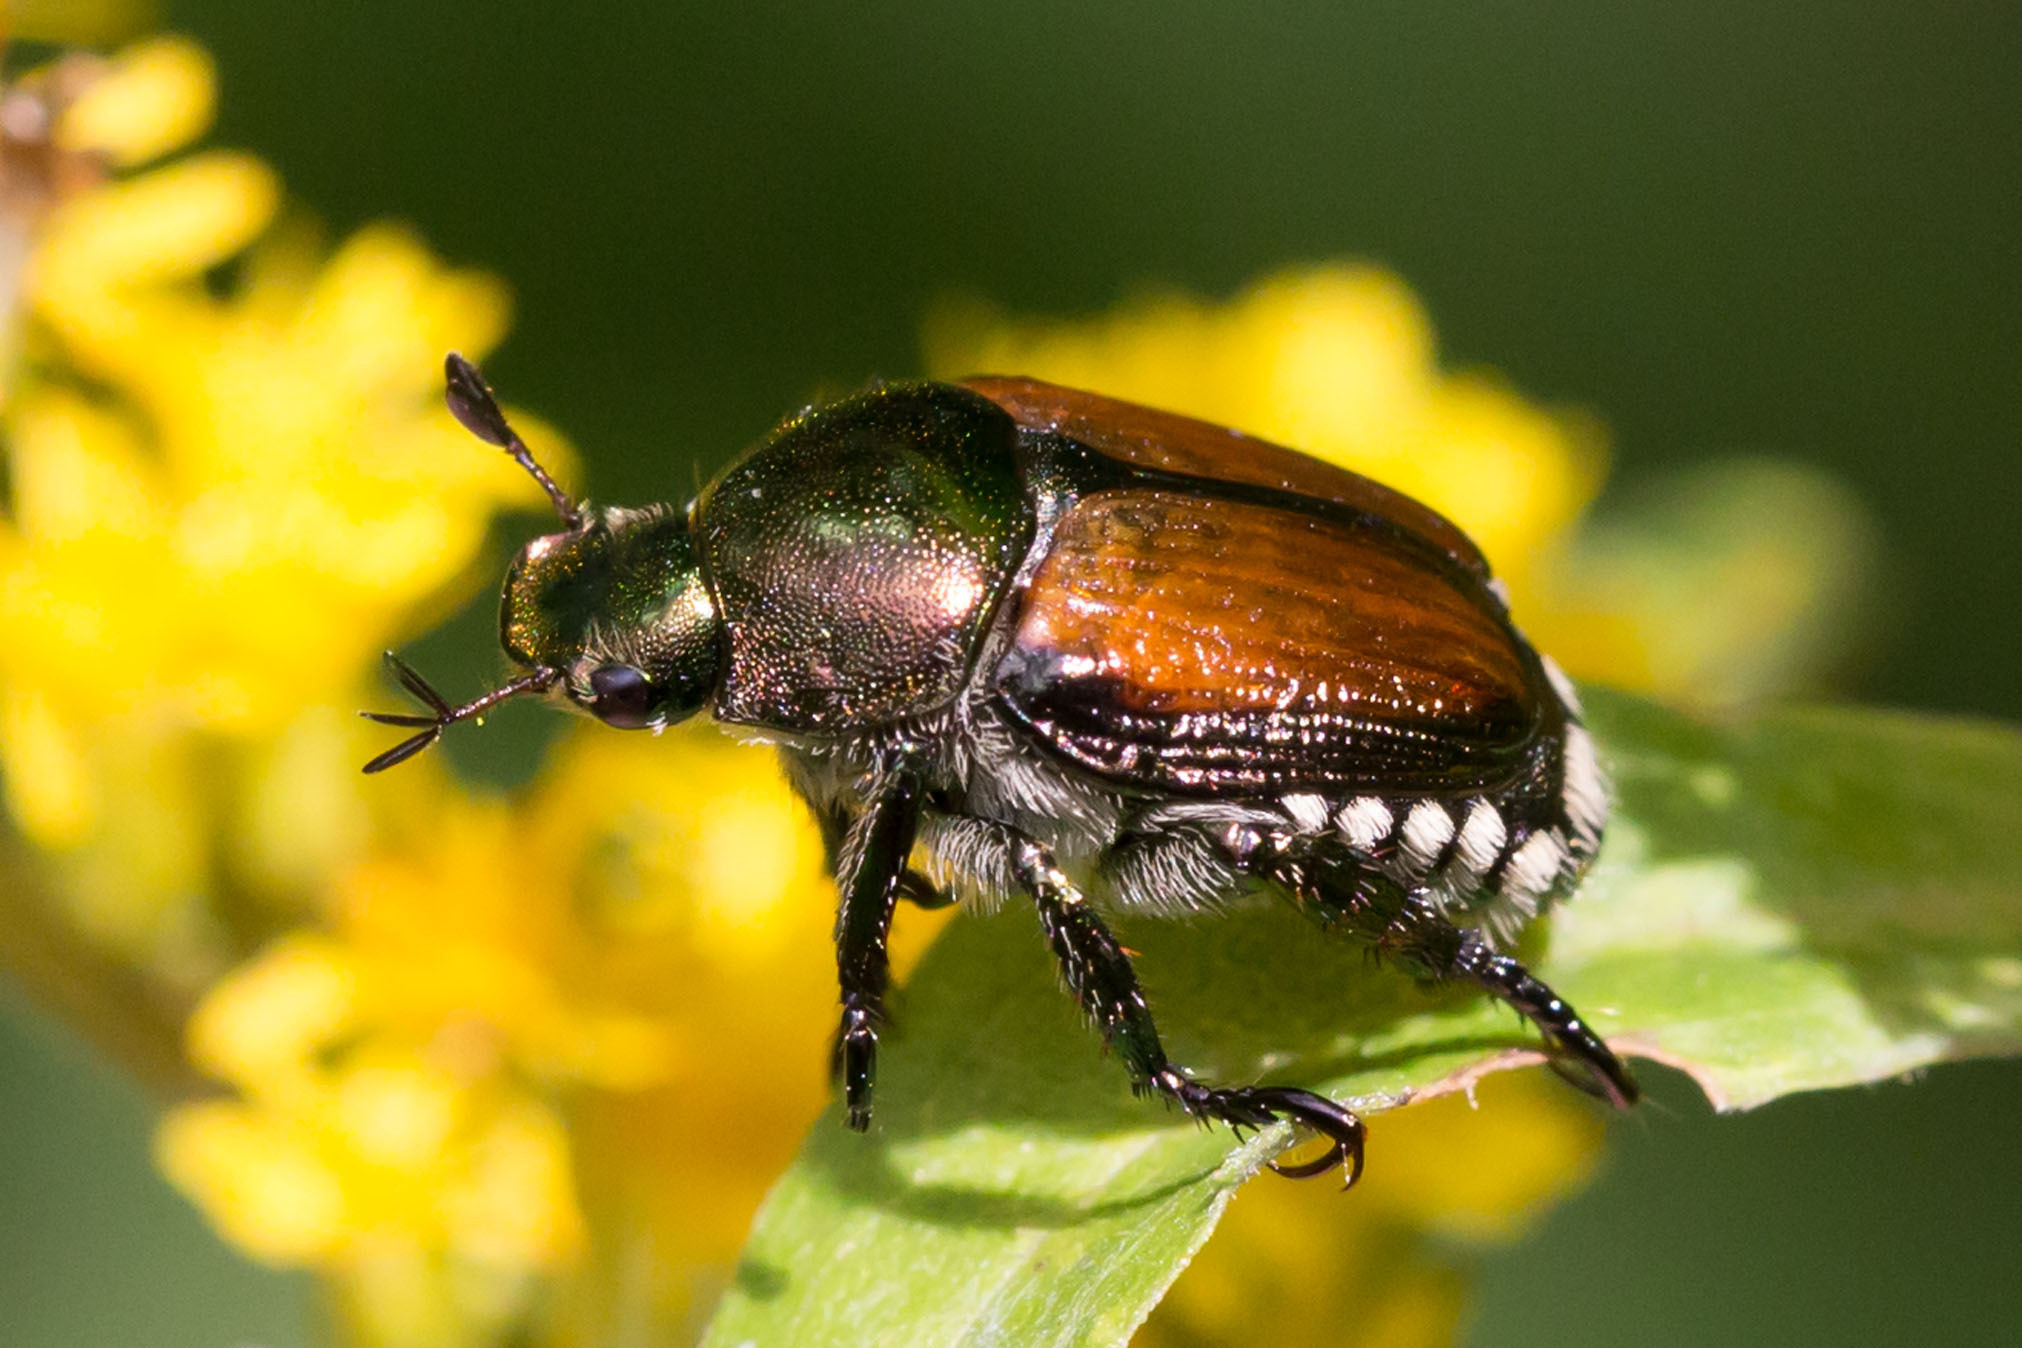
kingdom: Animalia
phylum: Arthropoda
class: Insecta
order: Coleoptera
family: Scarabaeidae
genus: Popillia
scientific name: Popillia japonica
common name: Japanese beetle
